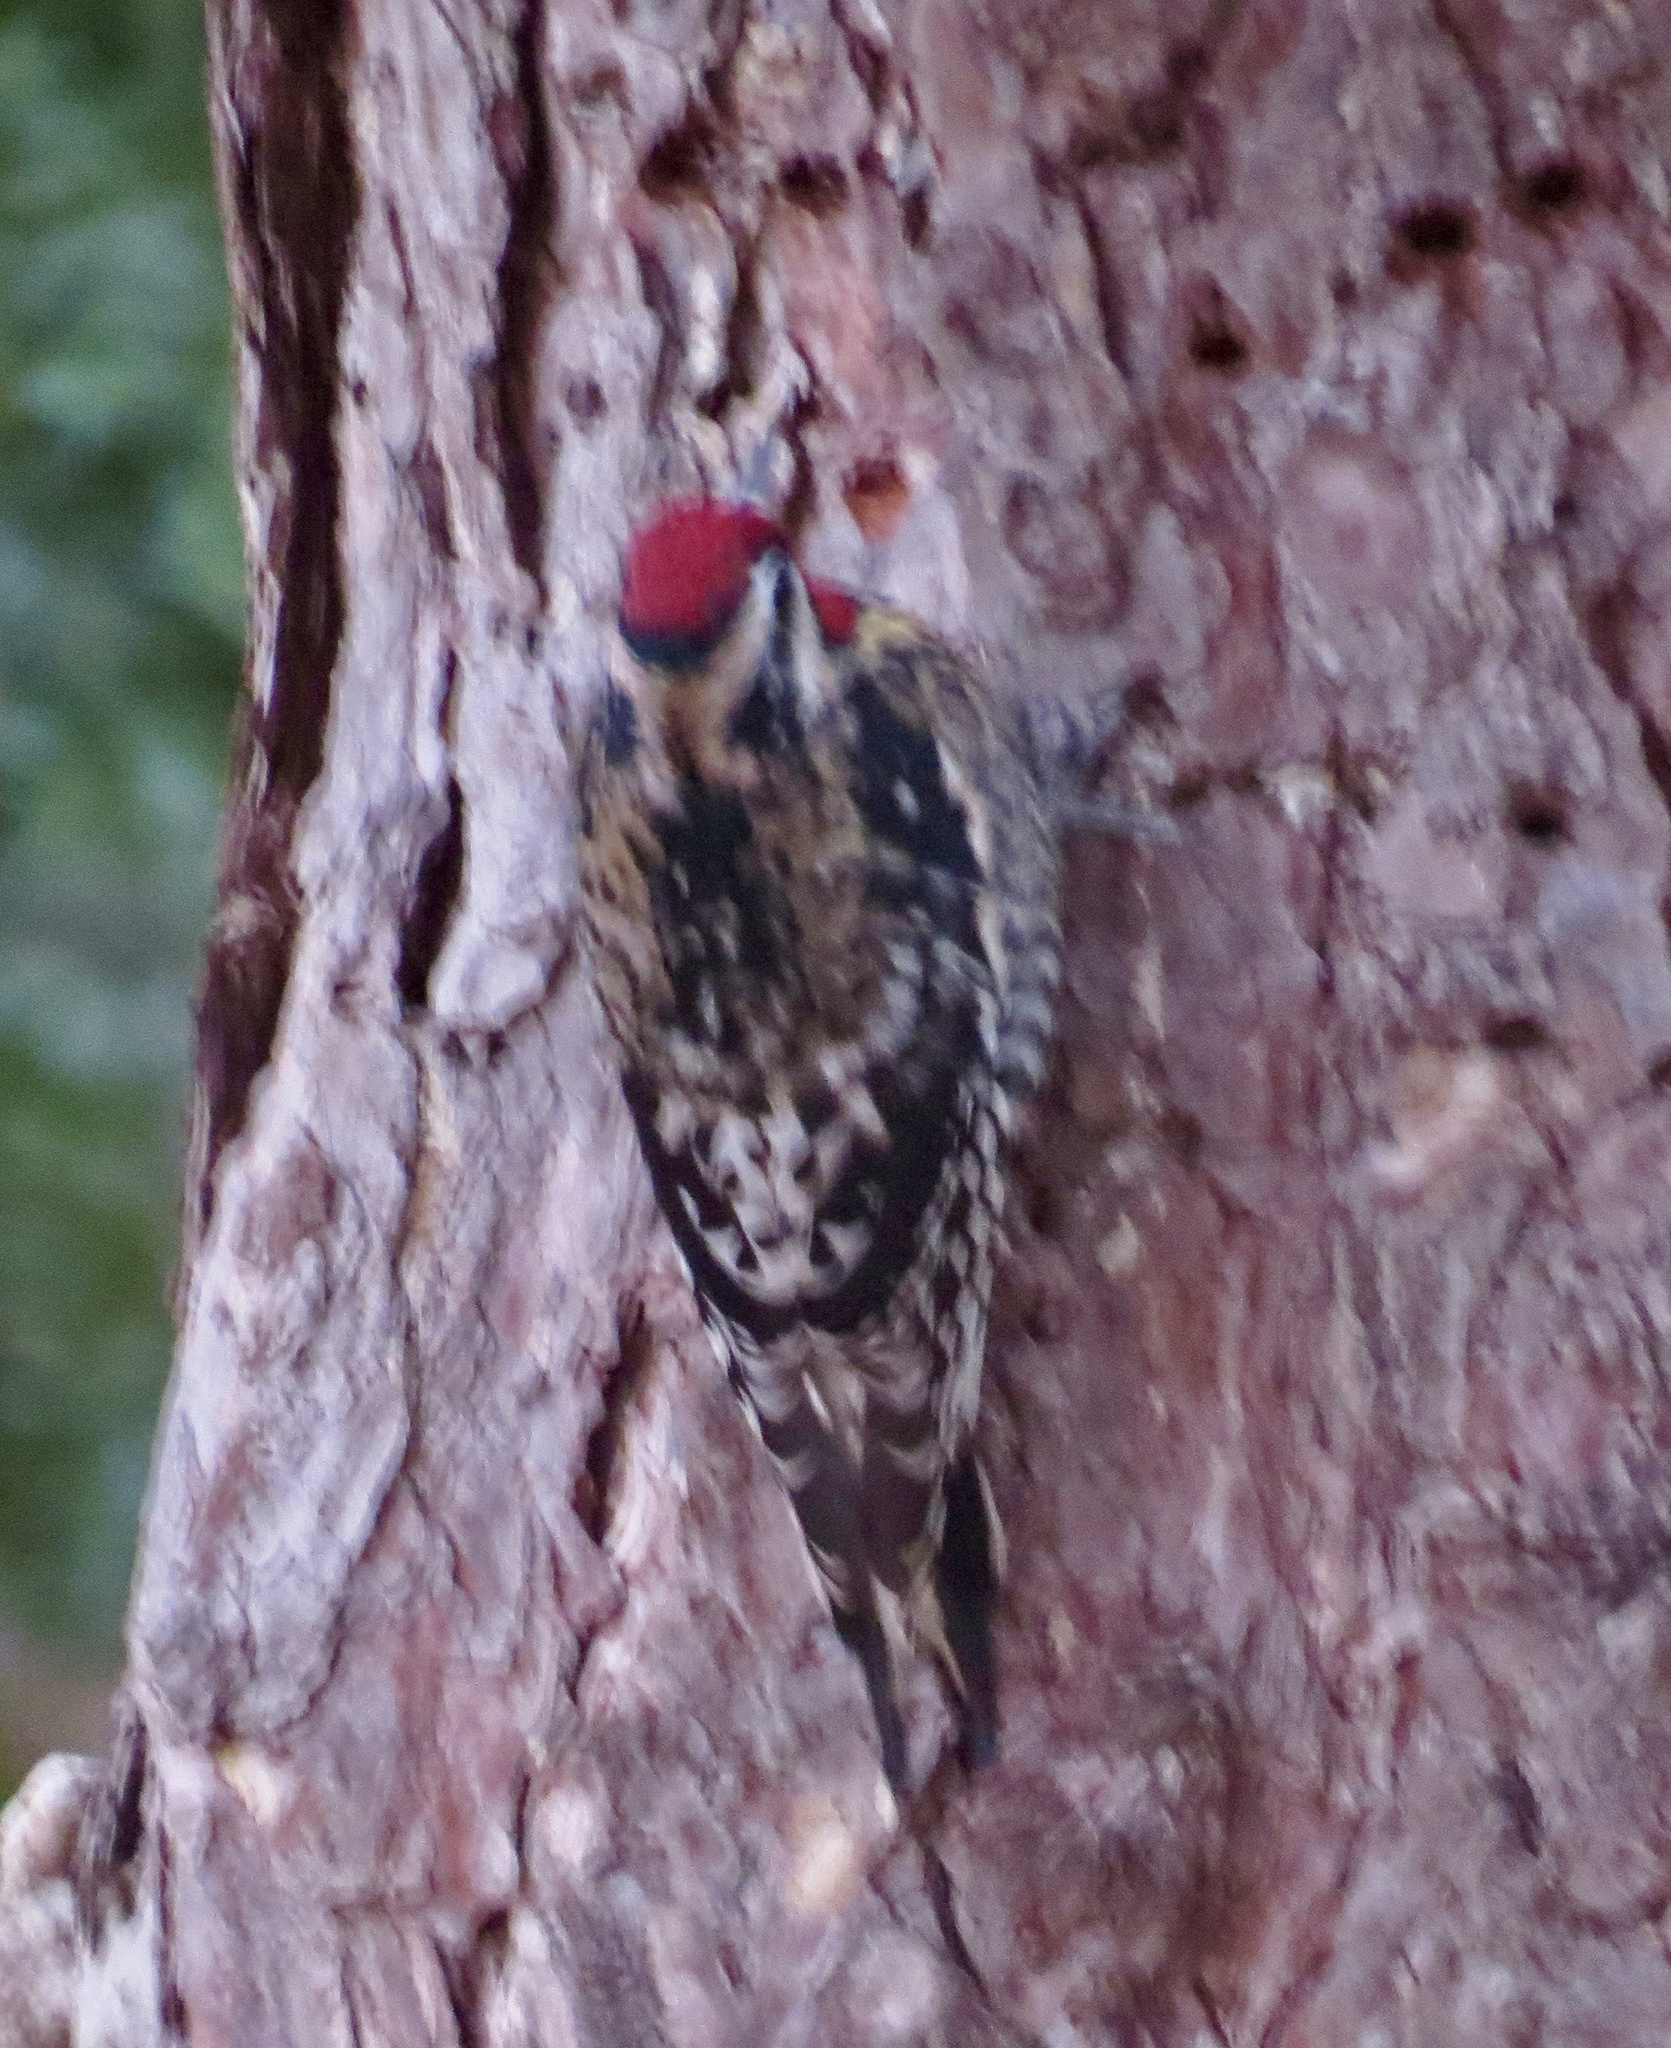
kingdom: Animalia
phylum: Chordata
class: Aves
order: Piciformes
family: Picidae
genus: Sphyrapicus
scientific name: Sphyrapicus varius
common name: Yellow-bellied sapsucker
